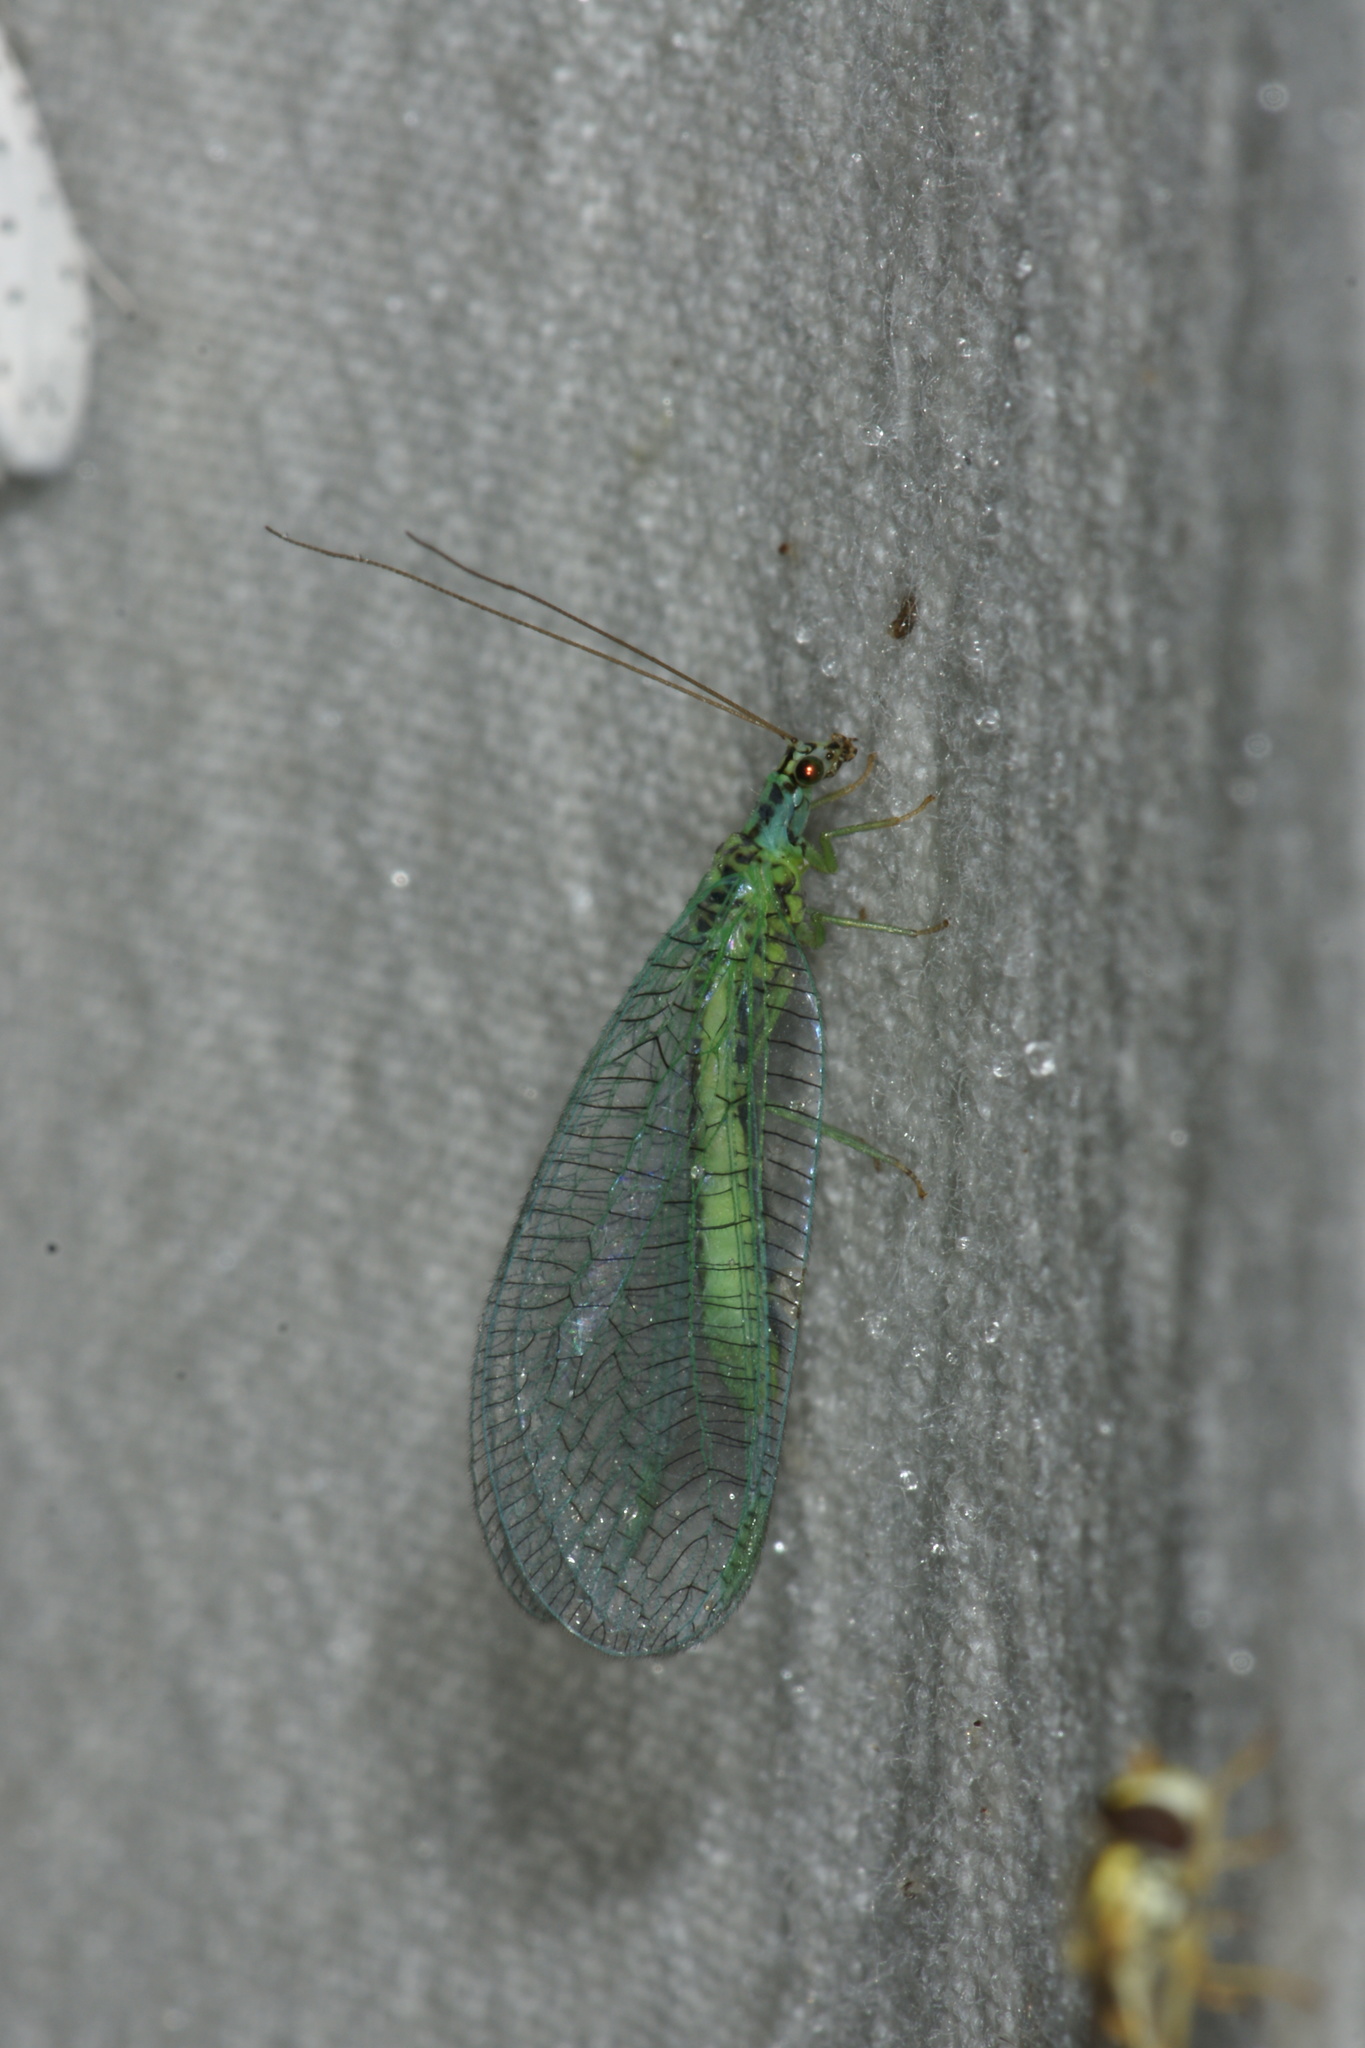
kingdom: Animalia
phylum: Arthropoda
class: Insecta
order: Neuroptera
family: Chrysopidae
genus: Chrysopa
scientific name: Chrysopa perla
